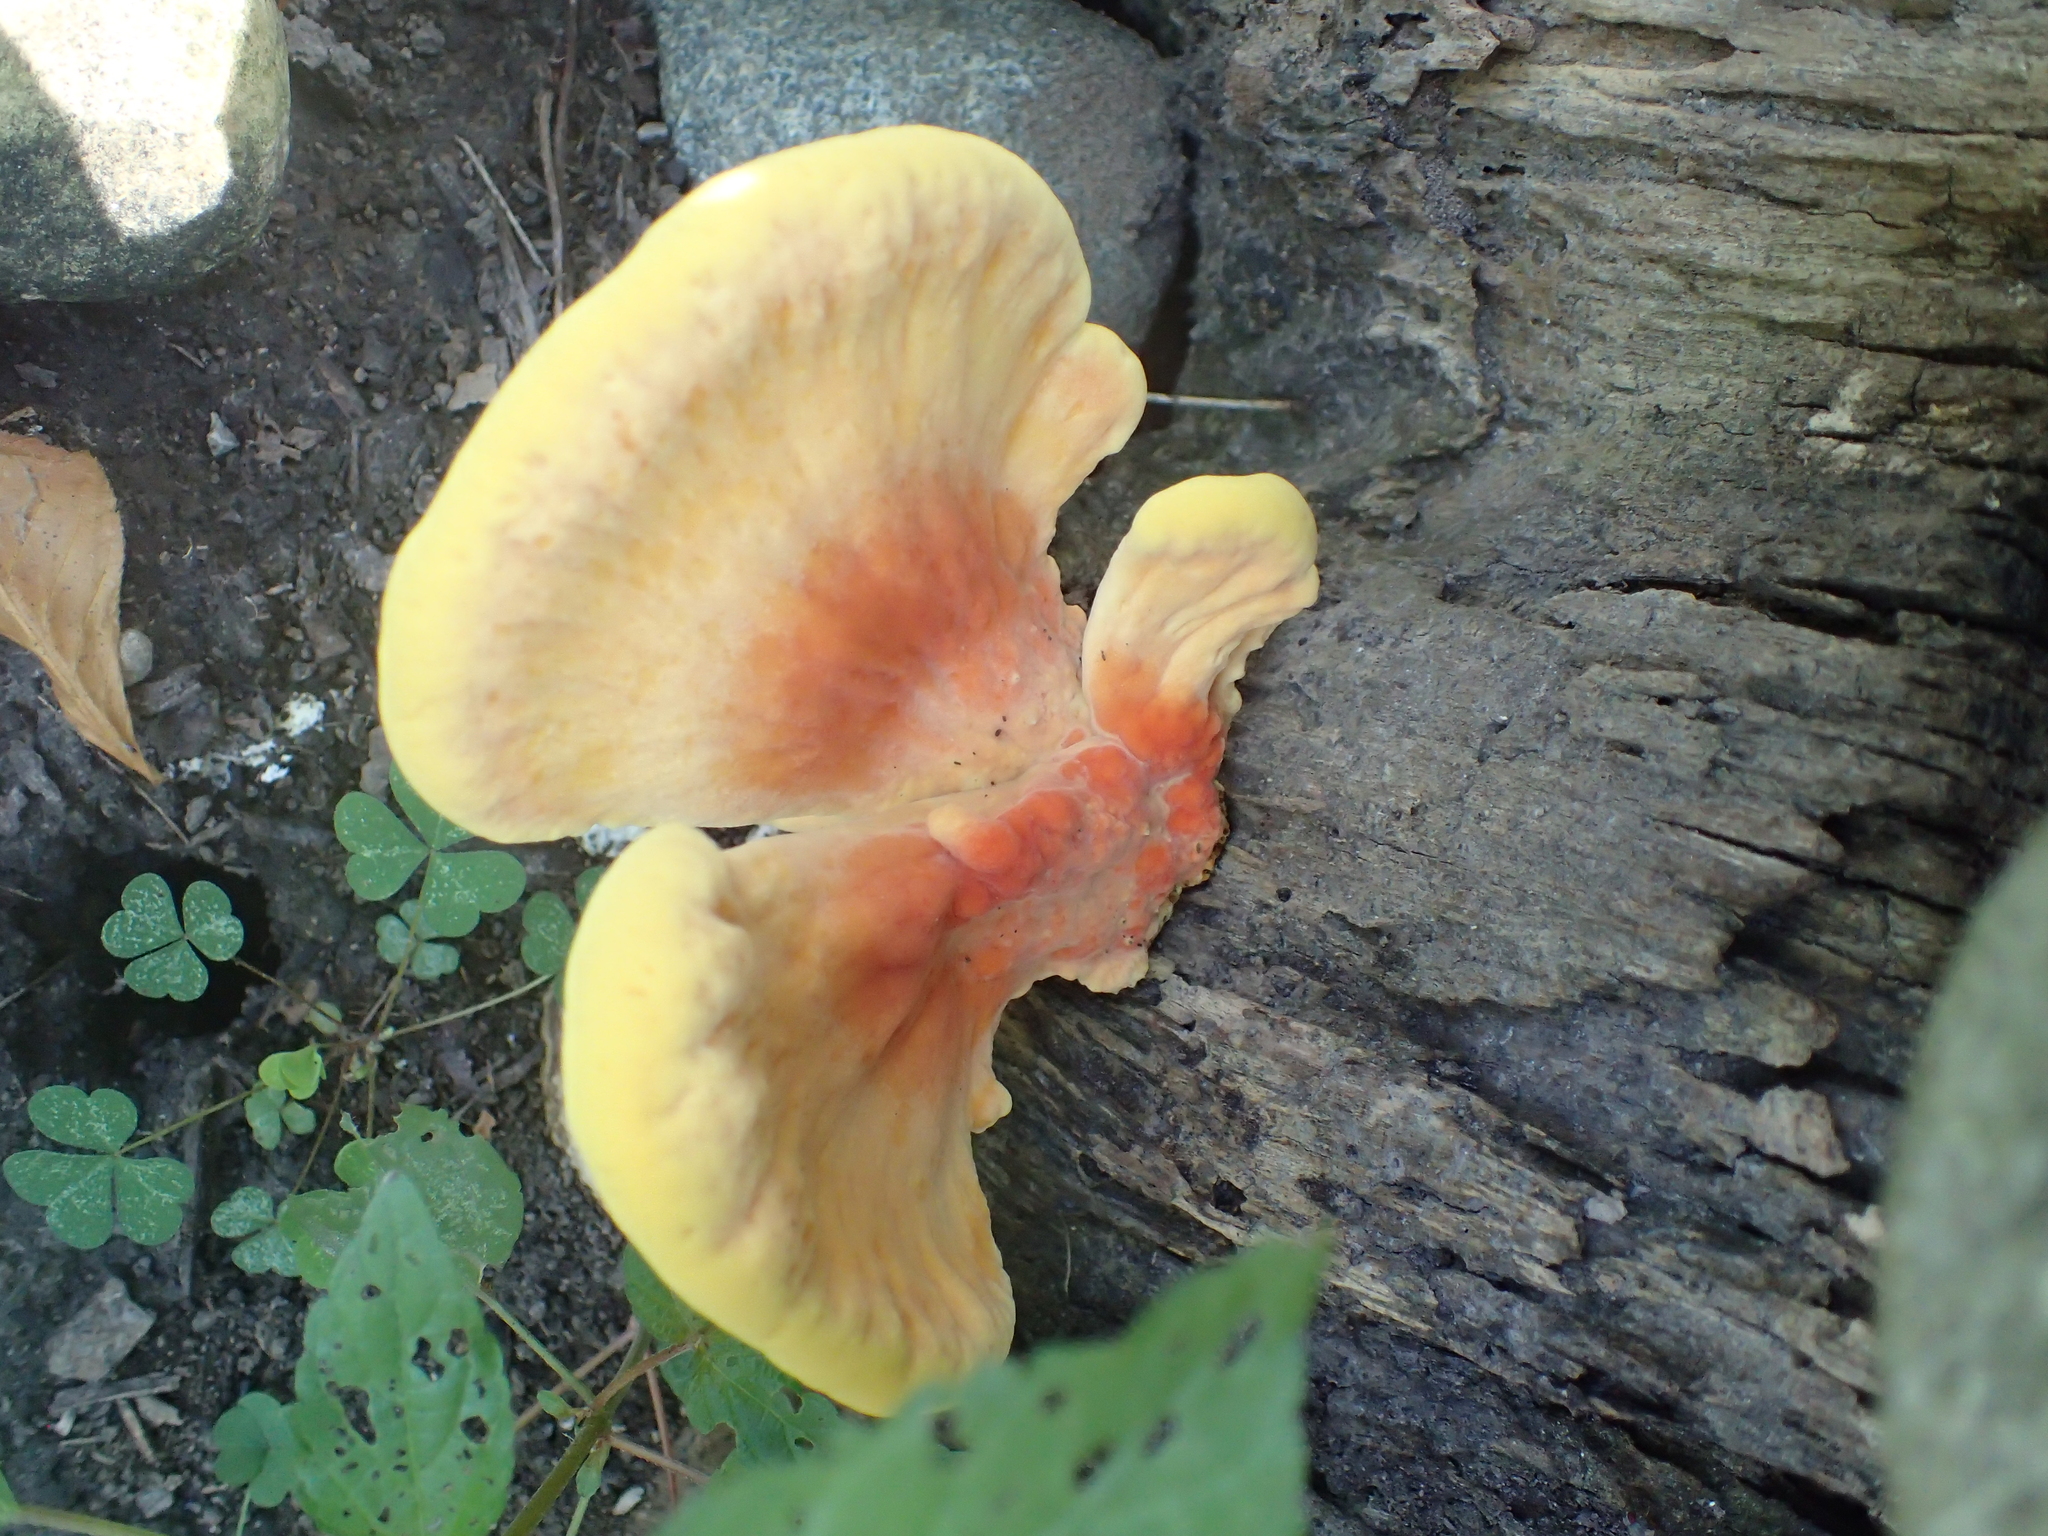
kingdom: Fungi
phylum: Basidiomycota
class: Agaricomycetes
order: Polyporales
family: Laetiporaceae
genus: Laetiporus
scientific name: Laetiporus sulphureus
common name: Chicken of the woods
